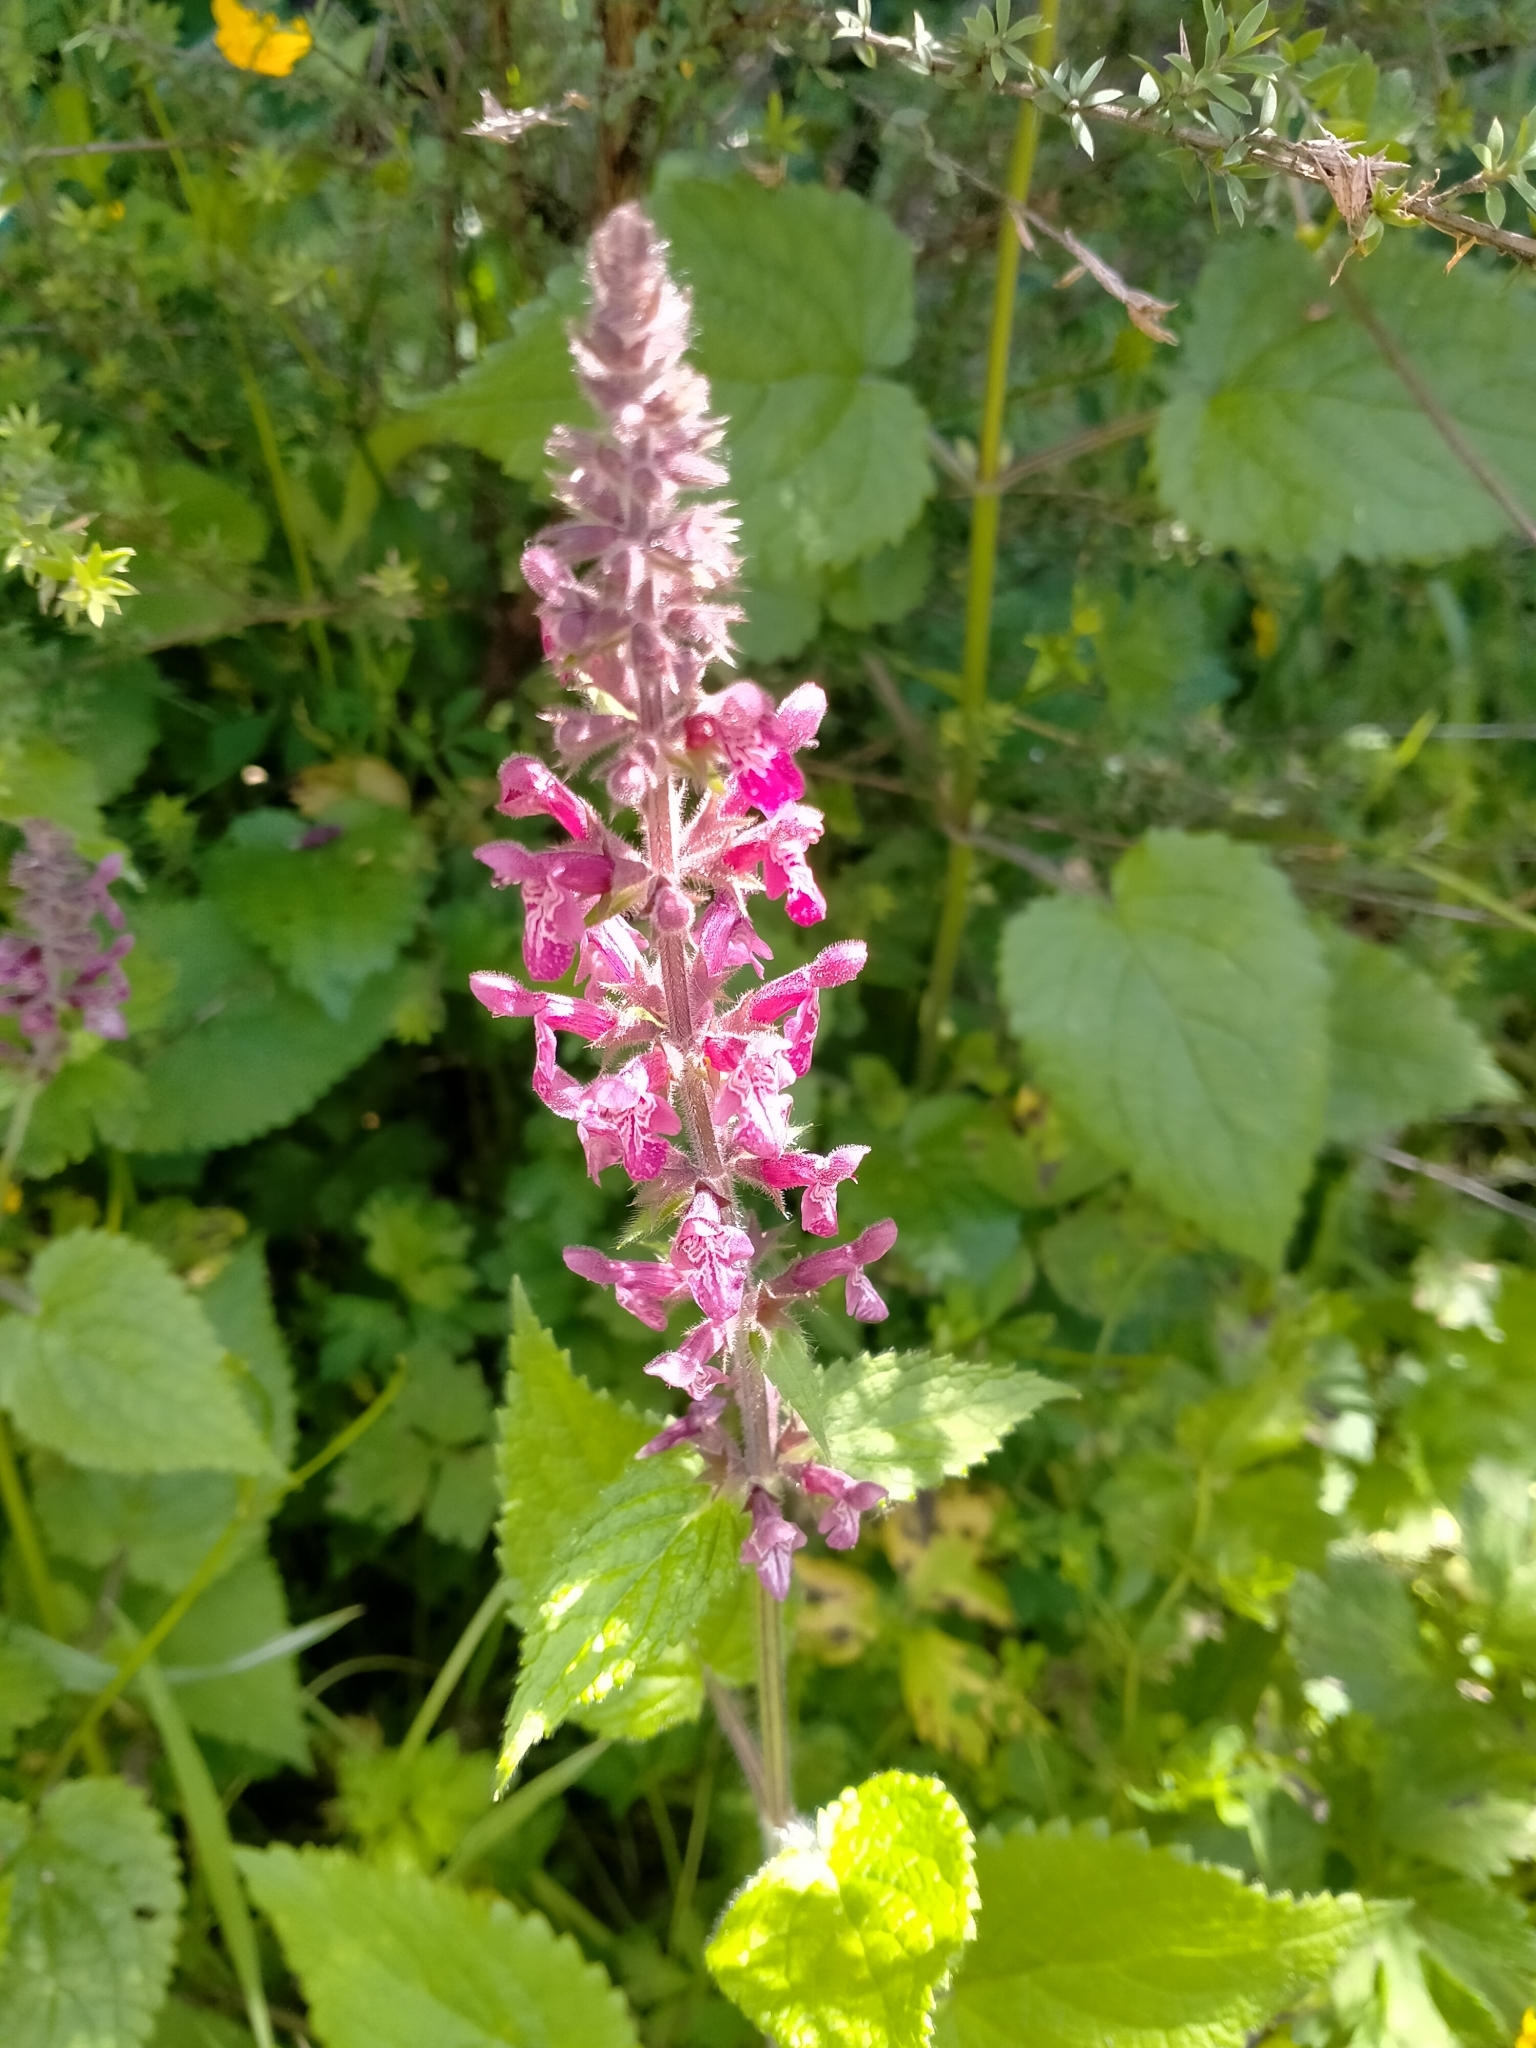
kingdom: Plantae
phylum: Tracheophyta
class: Magnoliopsida
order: Lamiales
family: Lamiaceae
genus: Stachys
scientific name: Stachys sylvatica
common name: Hedge woundwort
